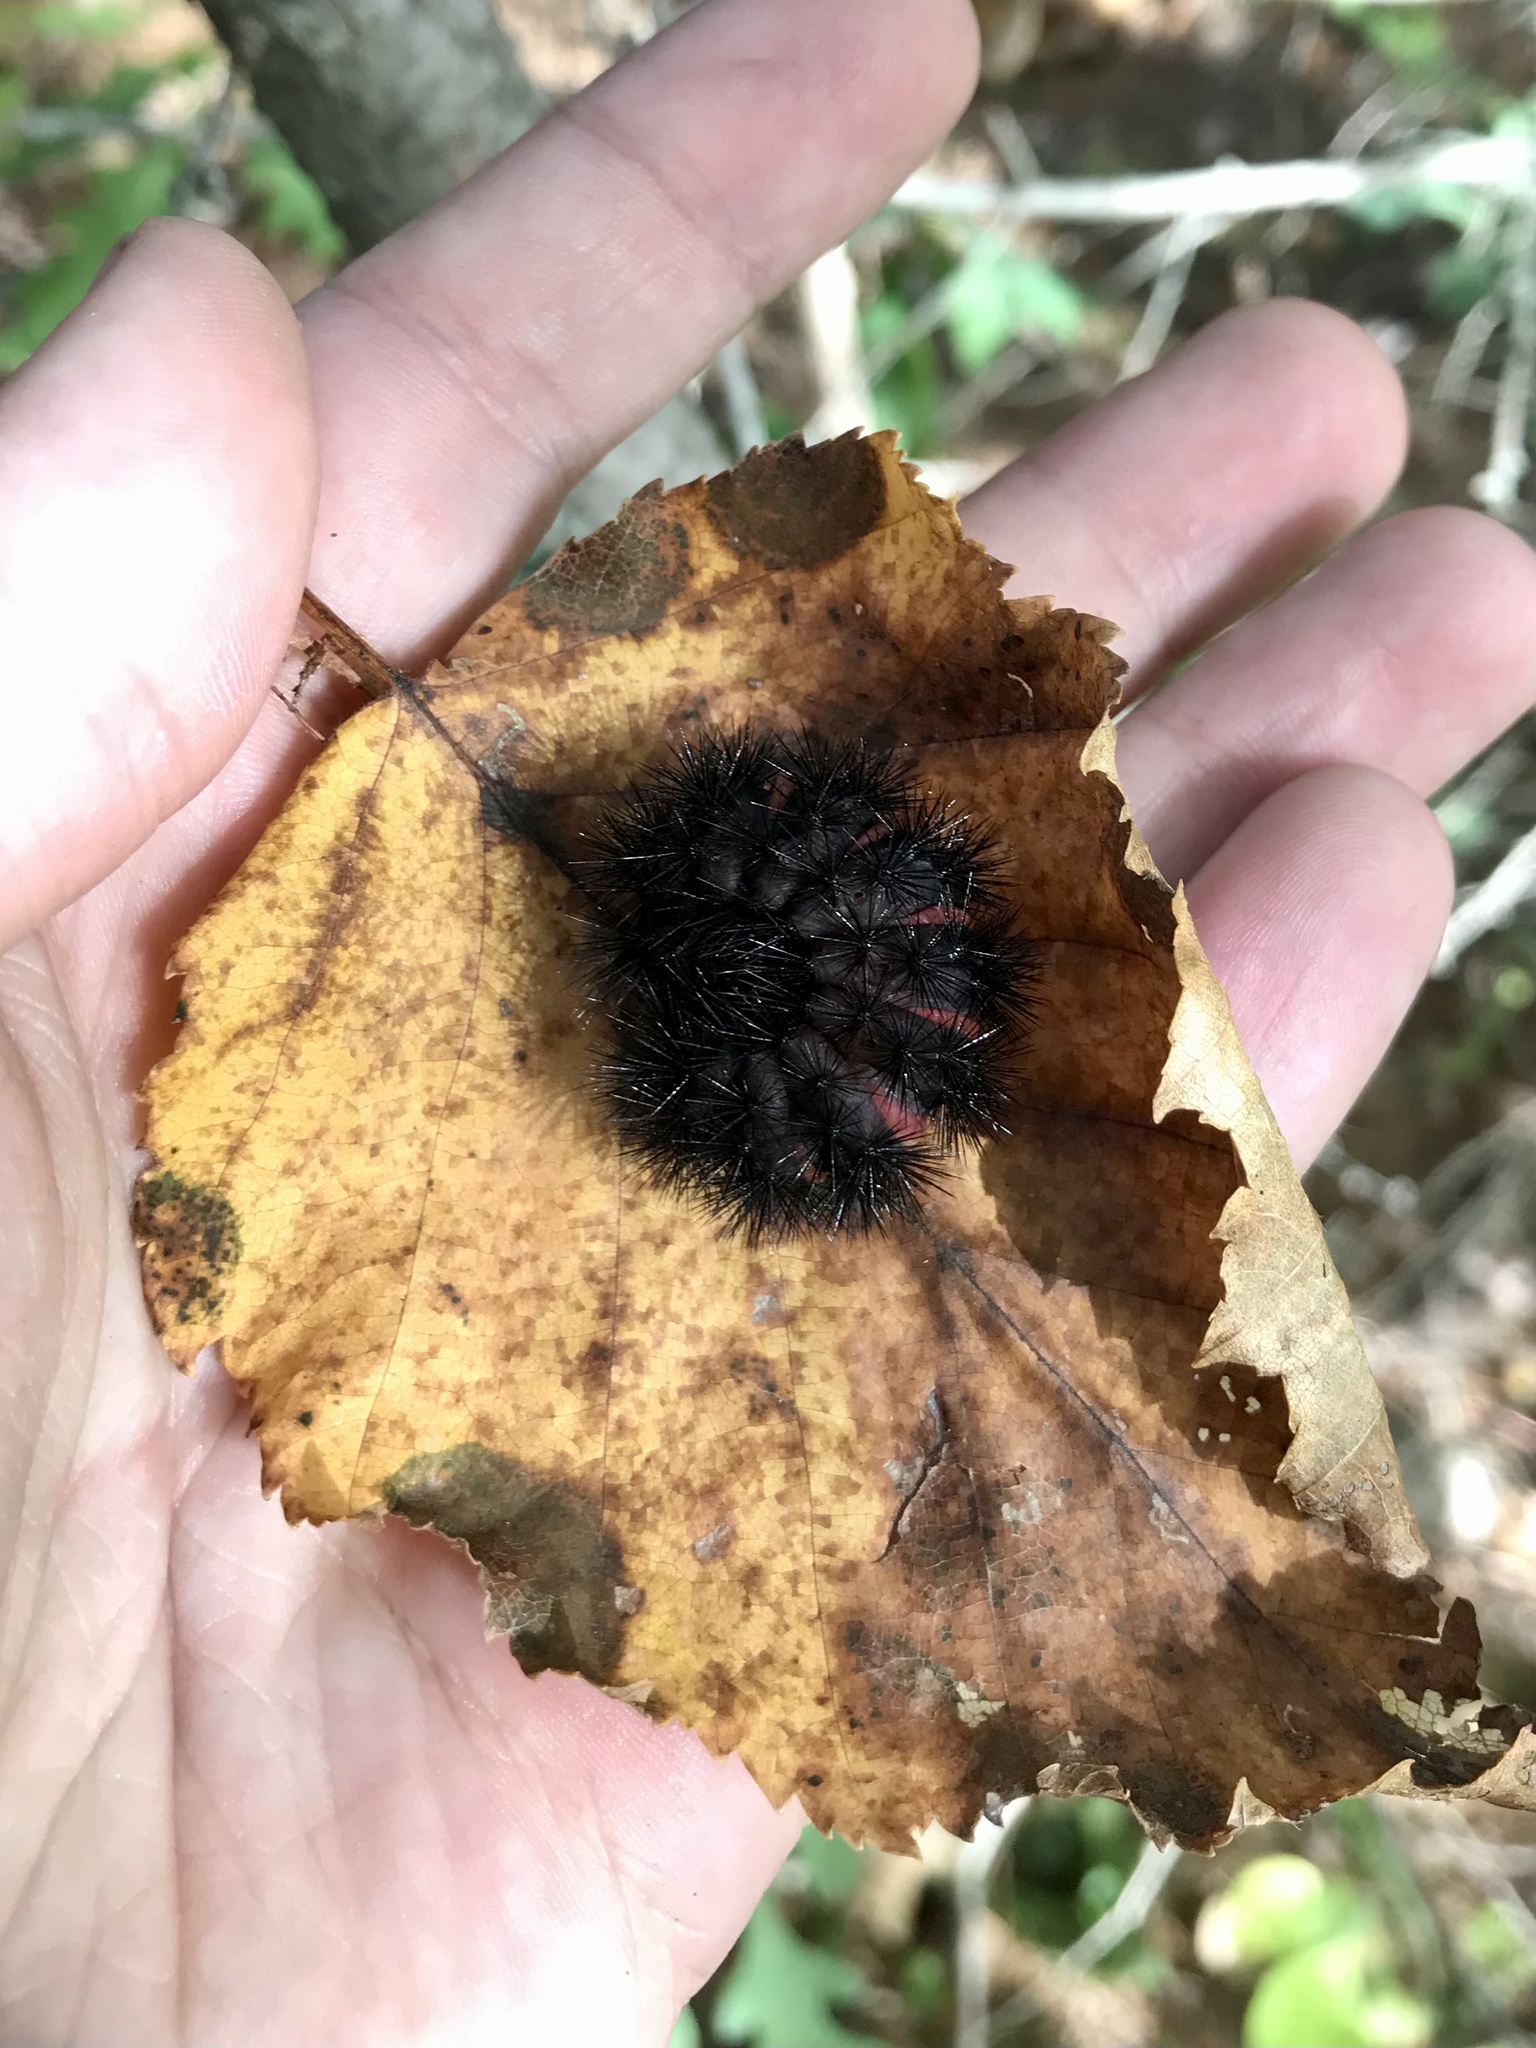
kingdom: Animalia
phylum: Arthropoda
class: Insecta
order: Lepidoptera
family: Erebidae
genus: Hypercompe
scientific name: Hypercompe scribonia
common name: Giant leopard moth
